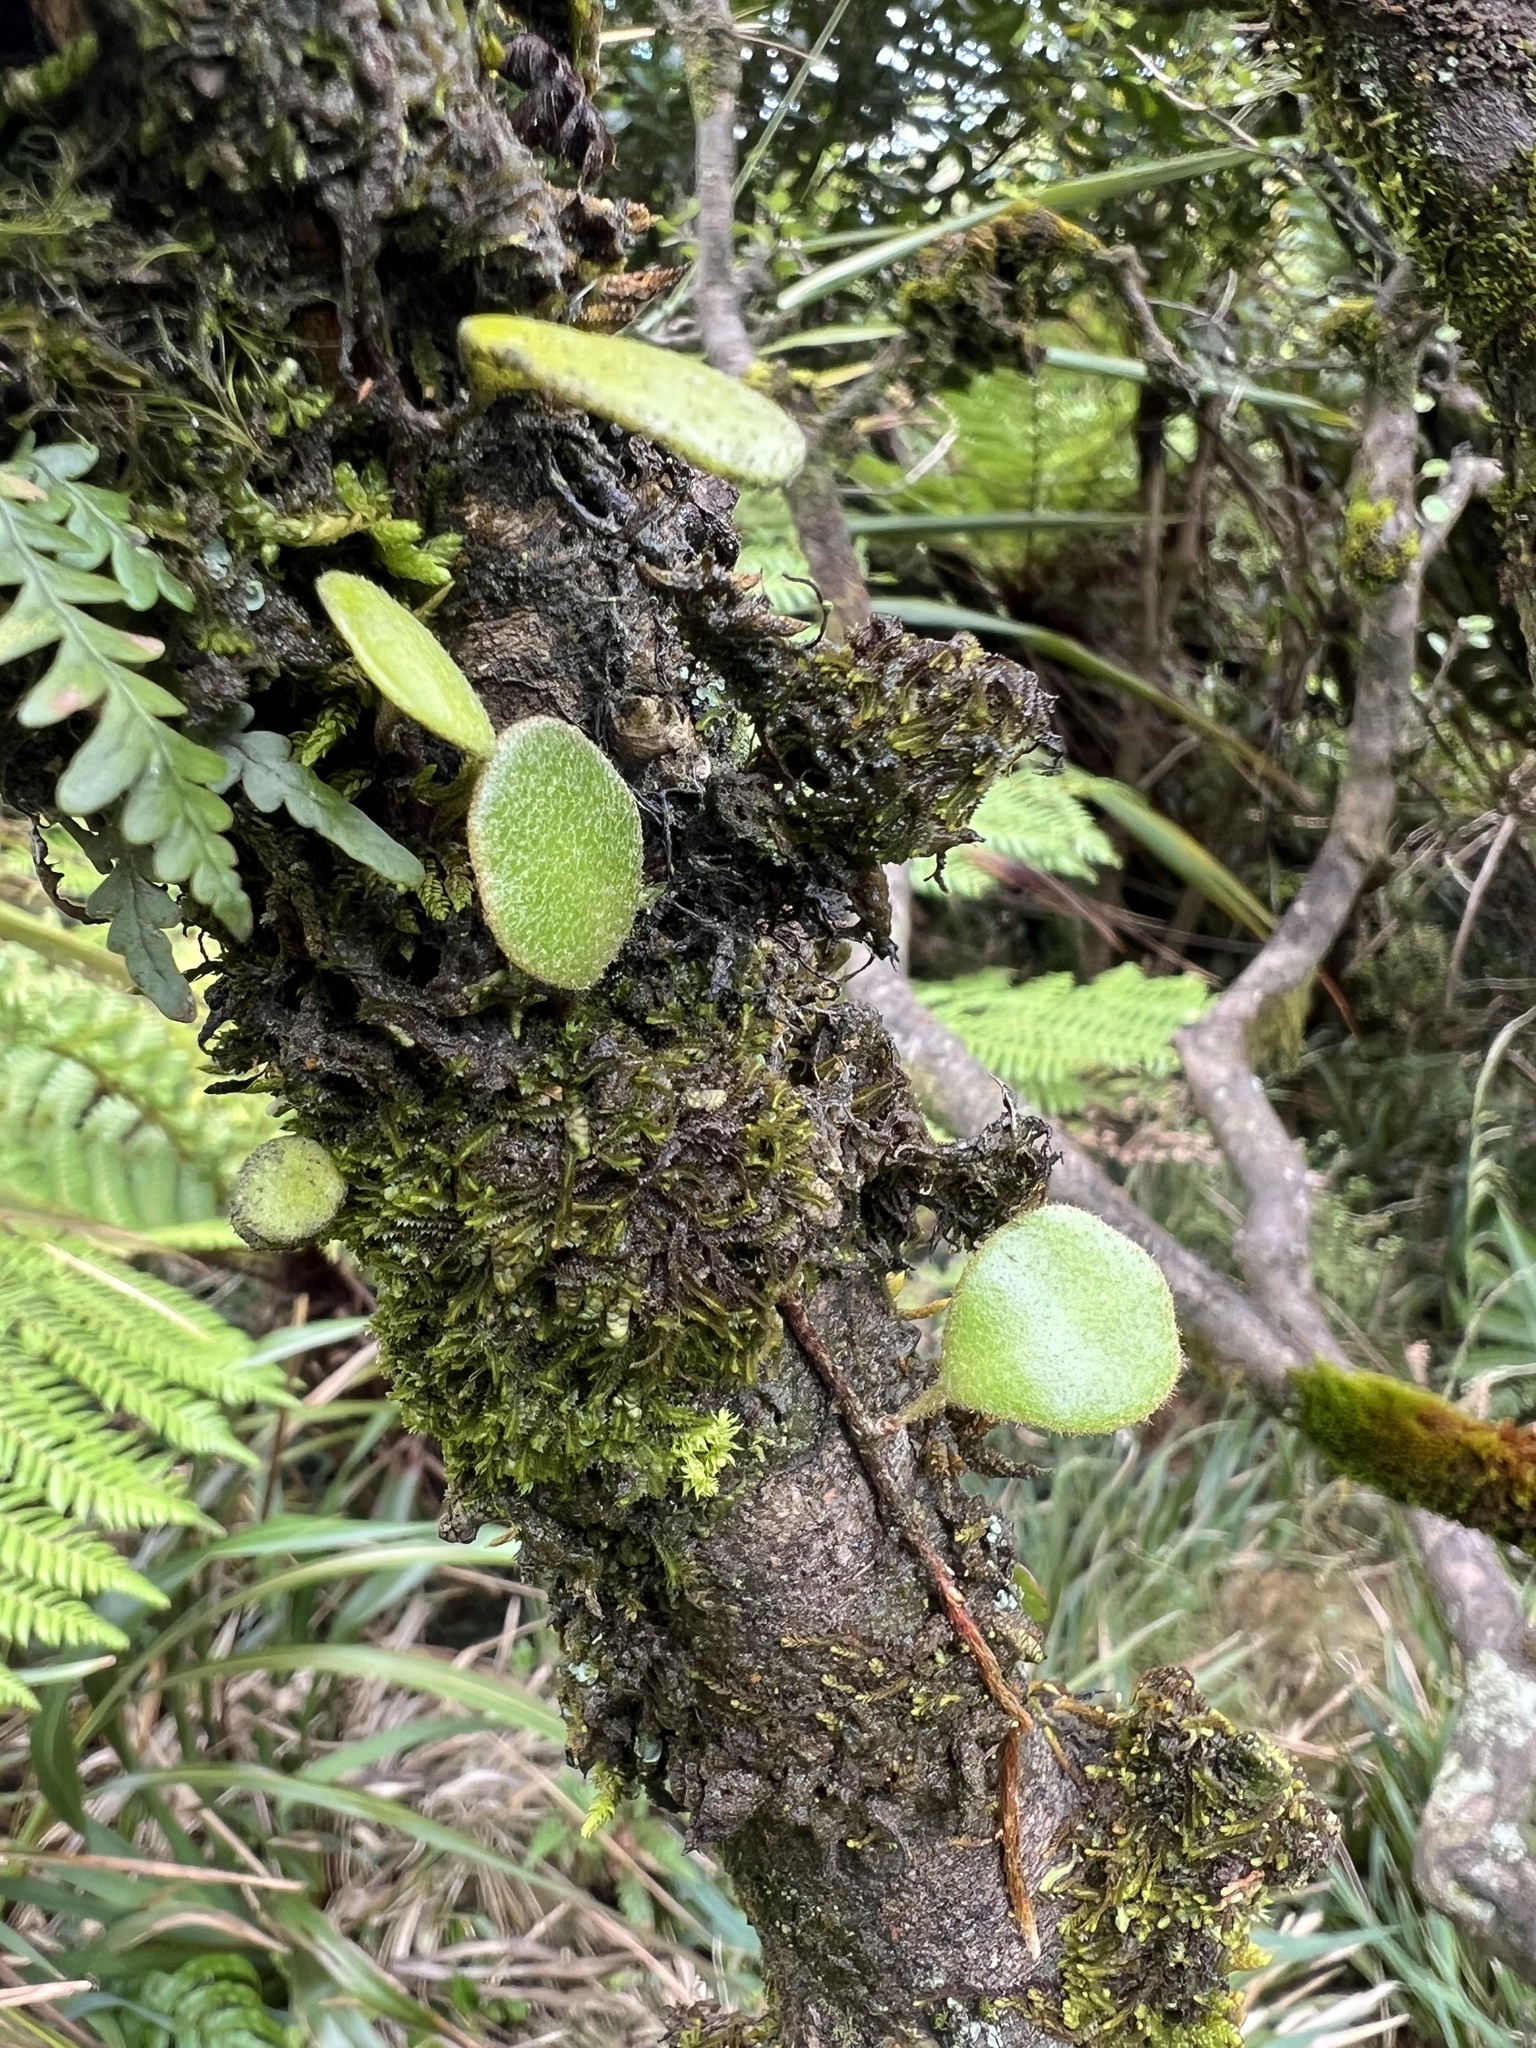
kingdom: Plantae
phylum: Tracheophyta
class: Polypodiopsida
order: Polypodiales
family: Polypodiaceae
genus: Pyrrosia
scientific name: Pyrrosia eleagnifolia
